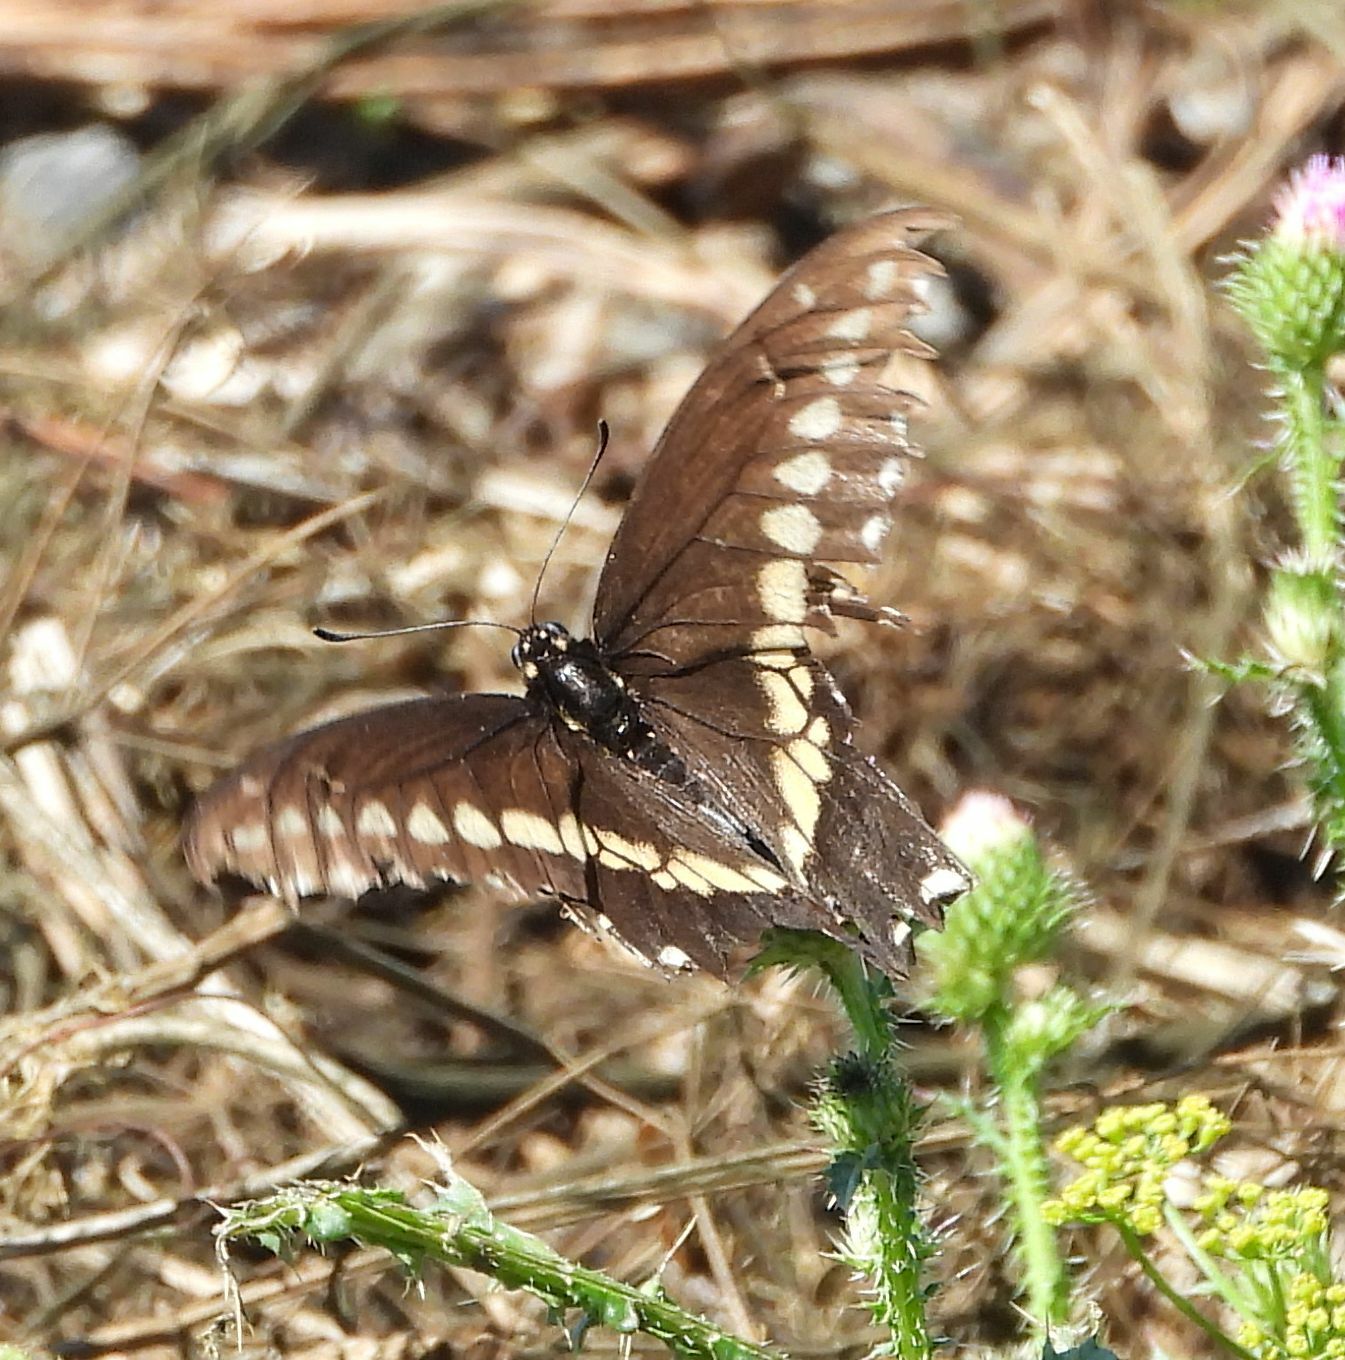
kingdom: Animalia
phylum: Arthropoda
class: Insecta
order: Lepidoptera
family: Papilionidae
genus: Papilio
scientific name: Papilio polyxenes
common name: Black swallowtail
